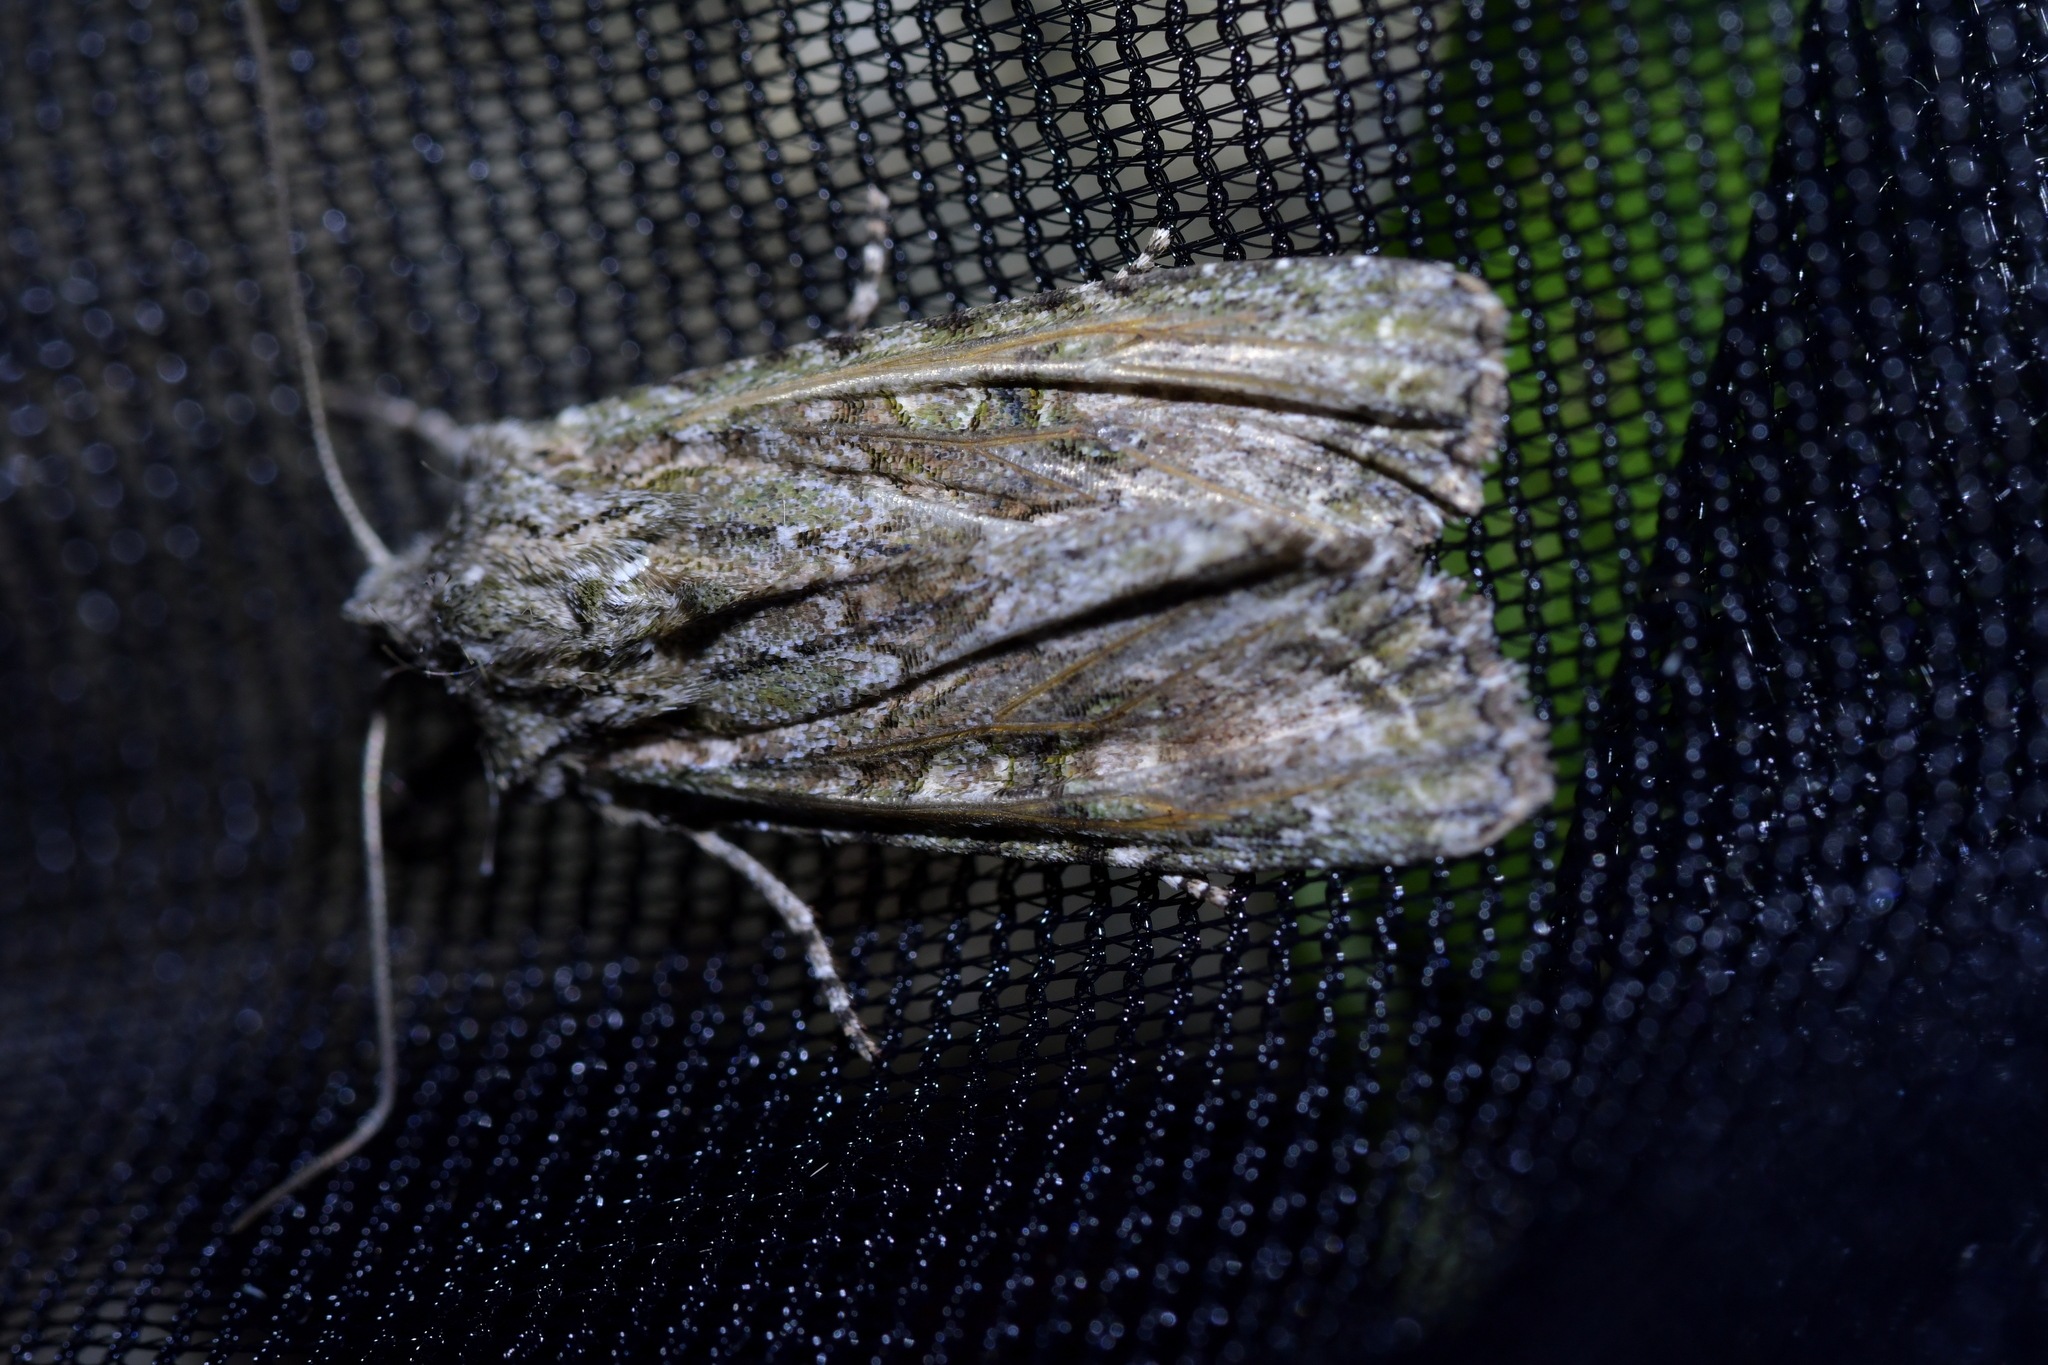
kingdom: Animalia
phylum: Arthropoda
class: Insecta
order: Lepidoptera
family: Noctuidae
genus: Ichneutica
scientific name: Ichneutica mutans
